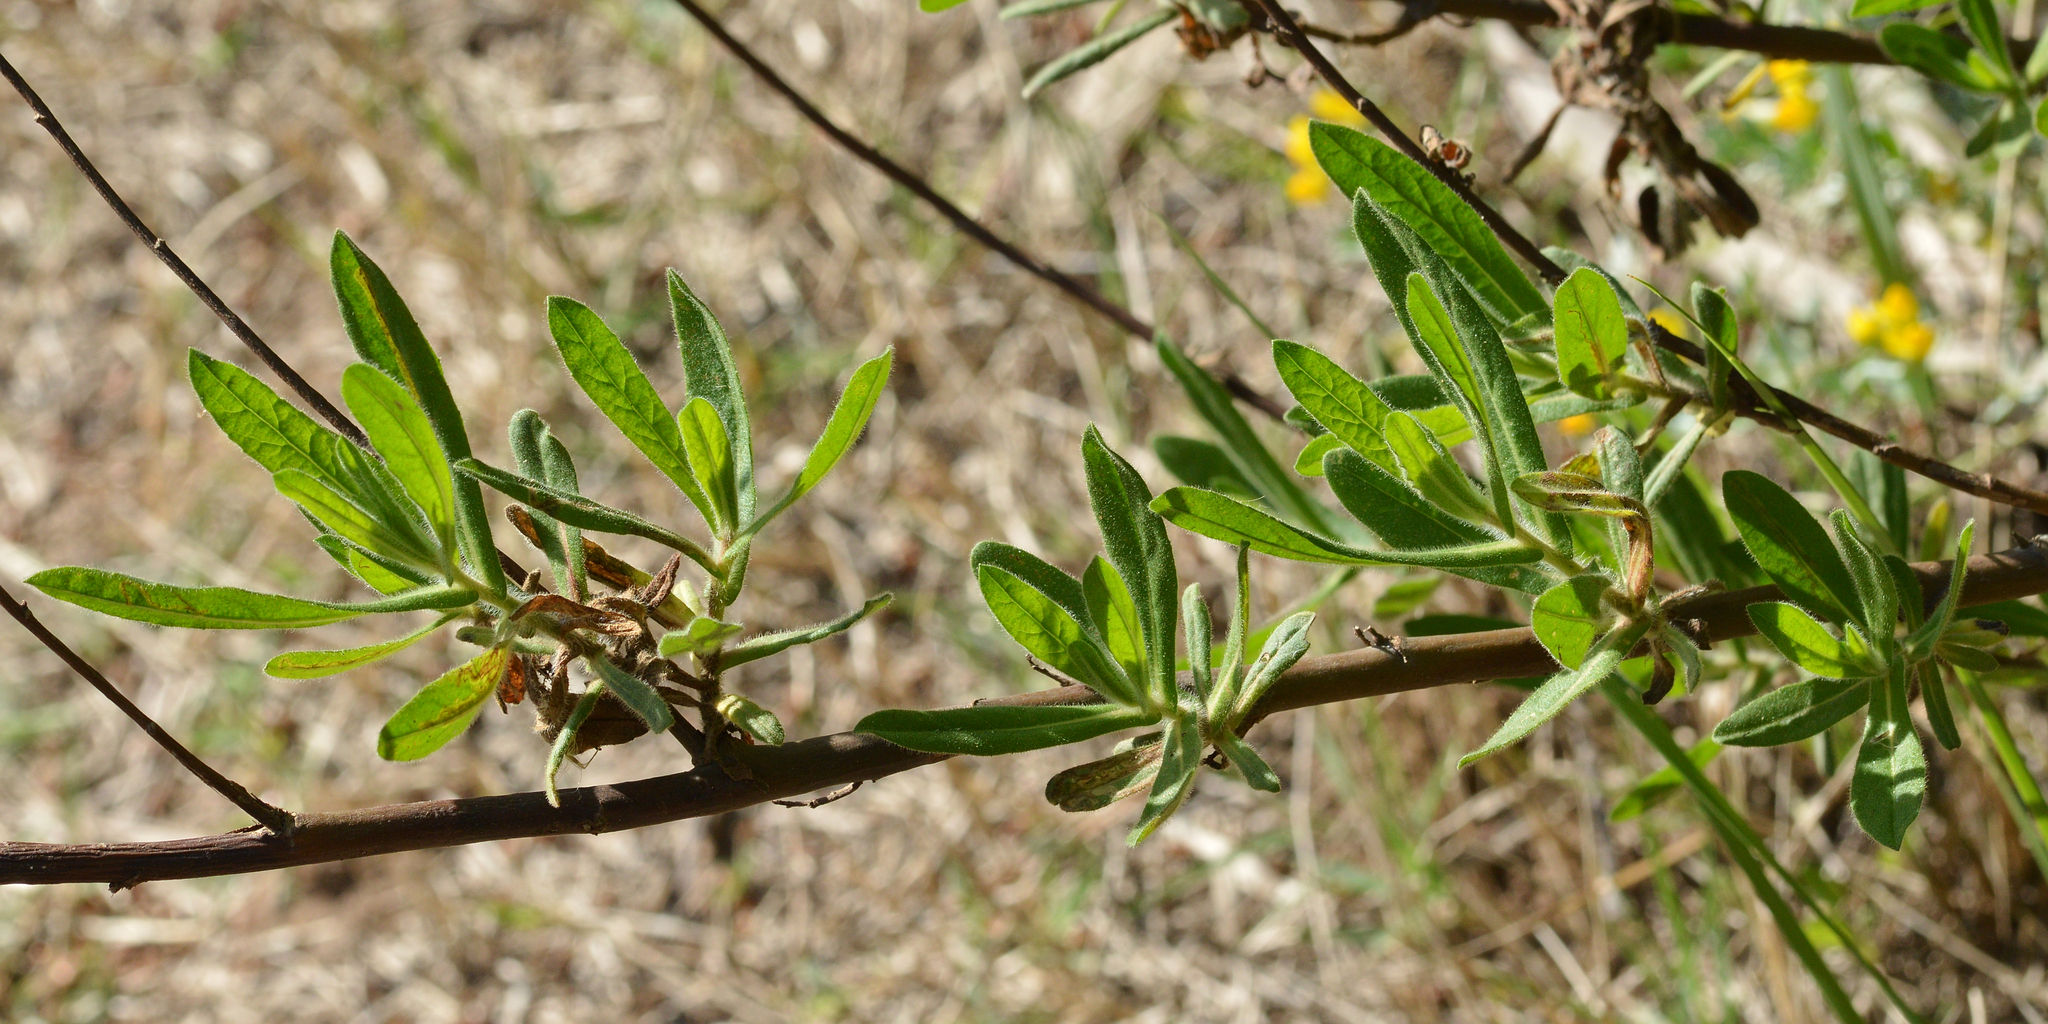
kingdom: Plantae
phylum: Tracheophyta
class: Magnoliopsida
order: Asterales
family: Asteraceae
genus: Dittrichia
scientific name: Dittrichia viscosa
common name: Woody fleabane
